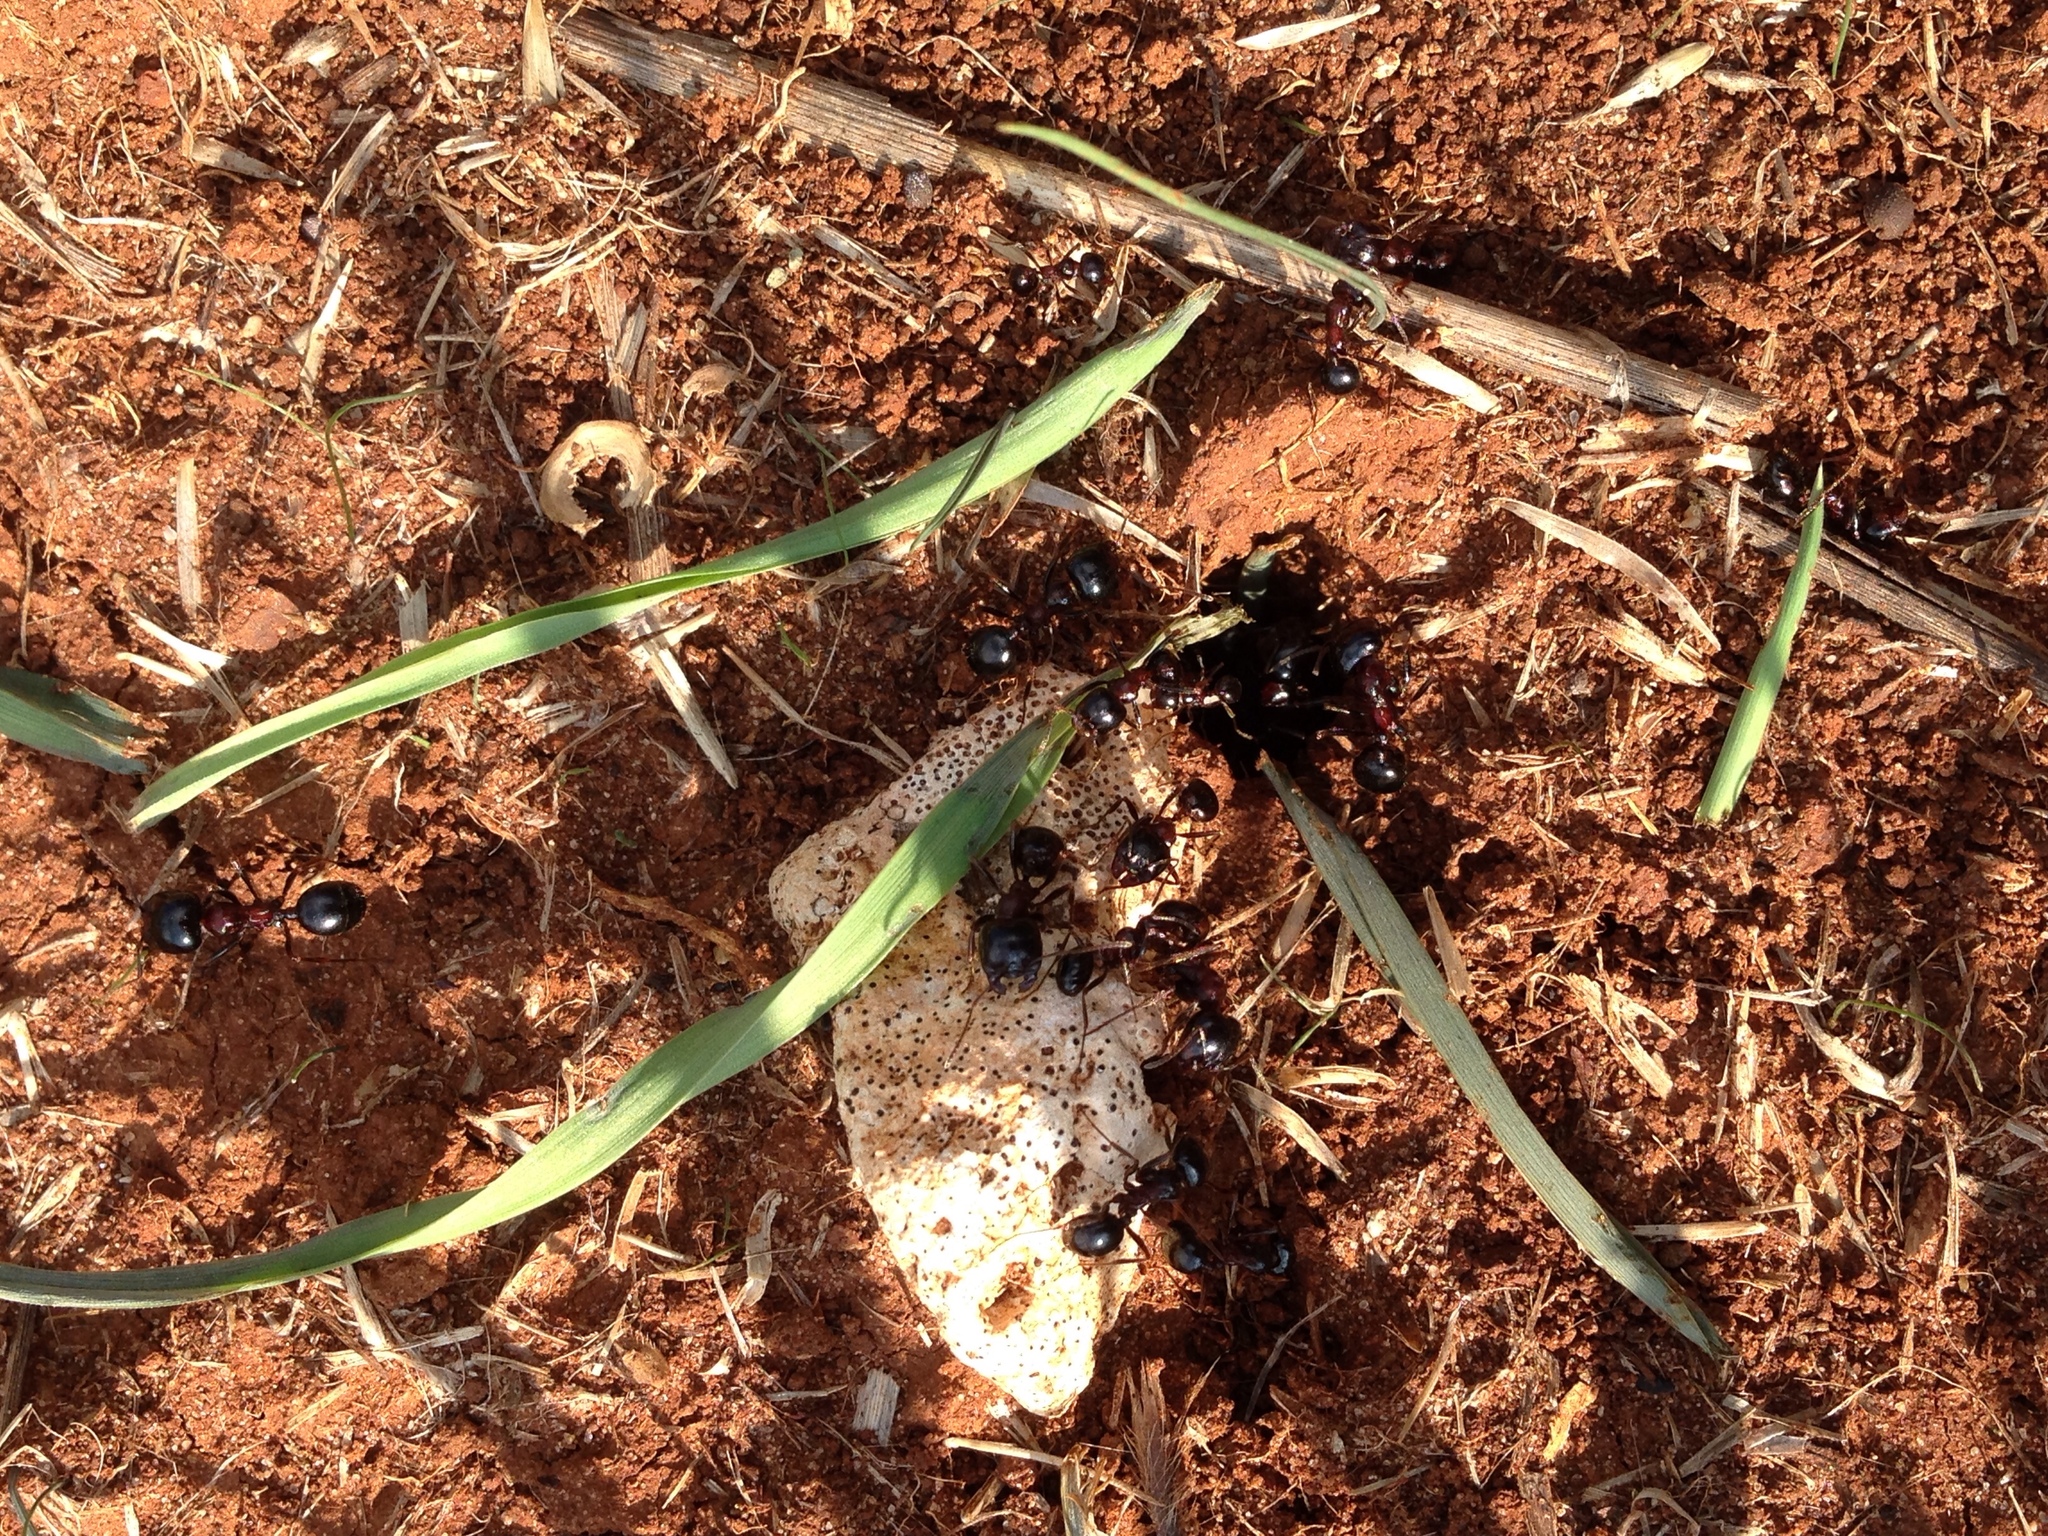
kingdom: Animalia
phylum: Arthropoda
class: Insecta
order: Hymenoptera
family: Formicidae
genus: Messor
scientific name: Messor wasmanni
